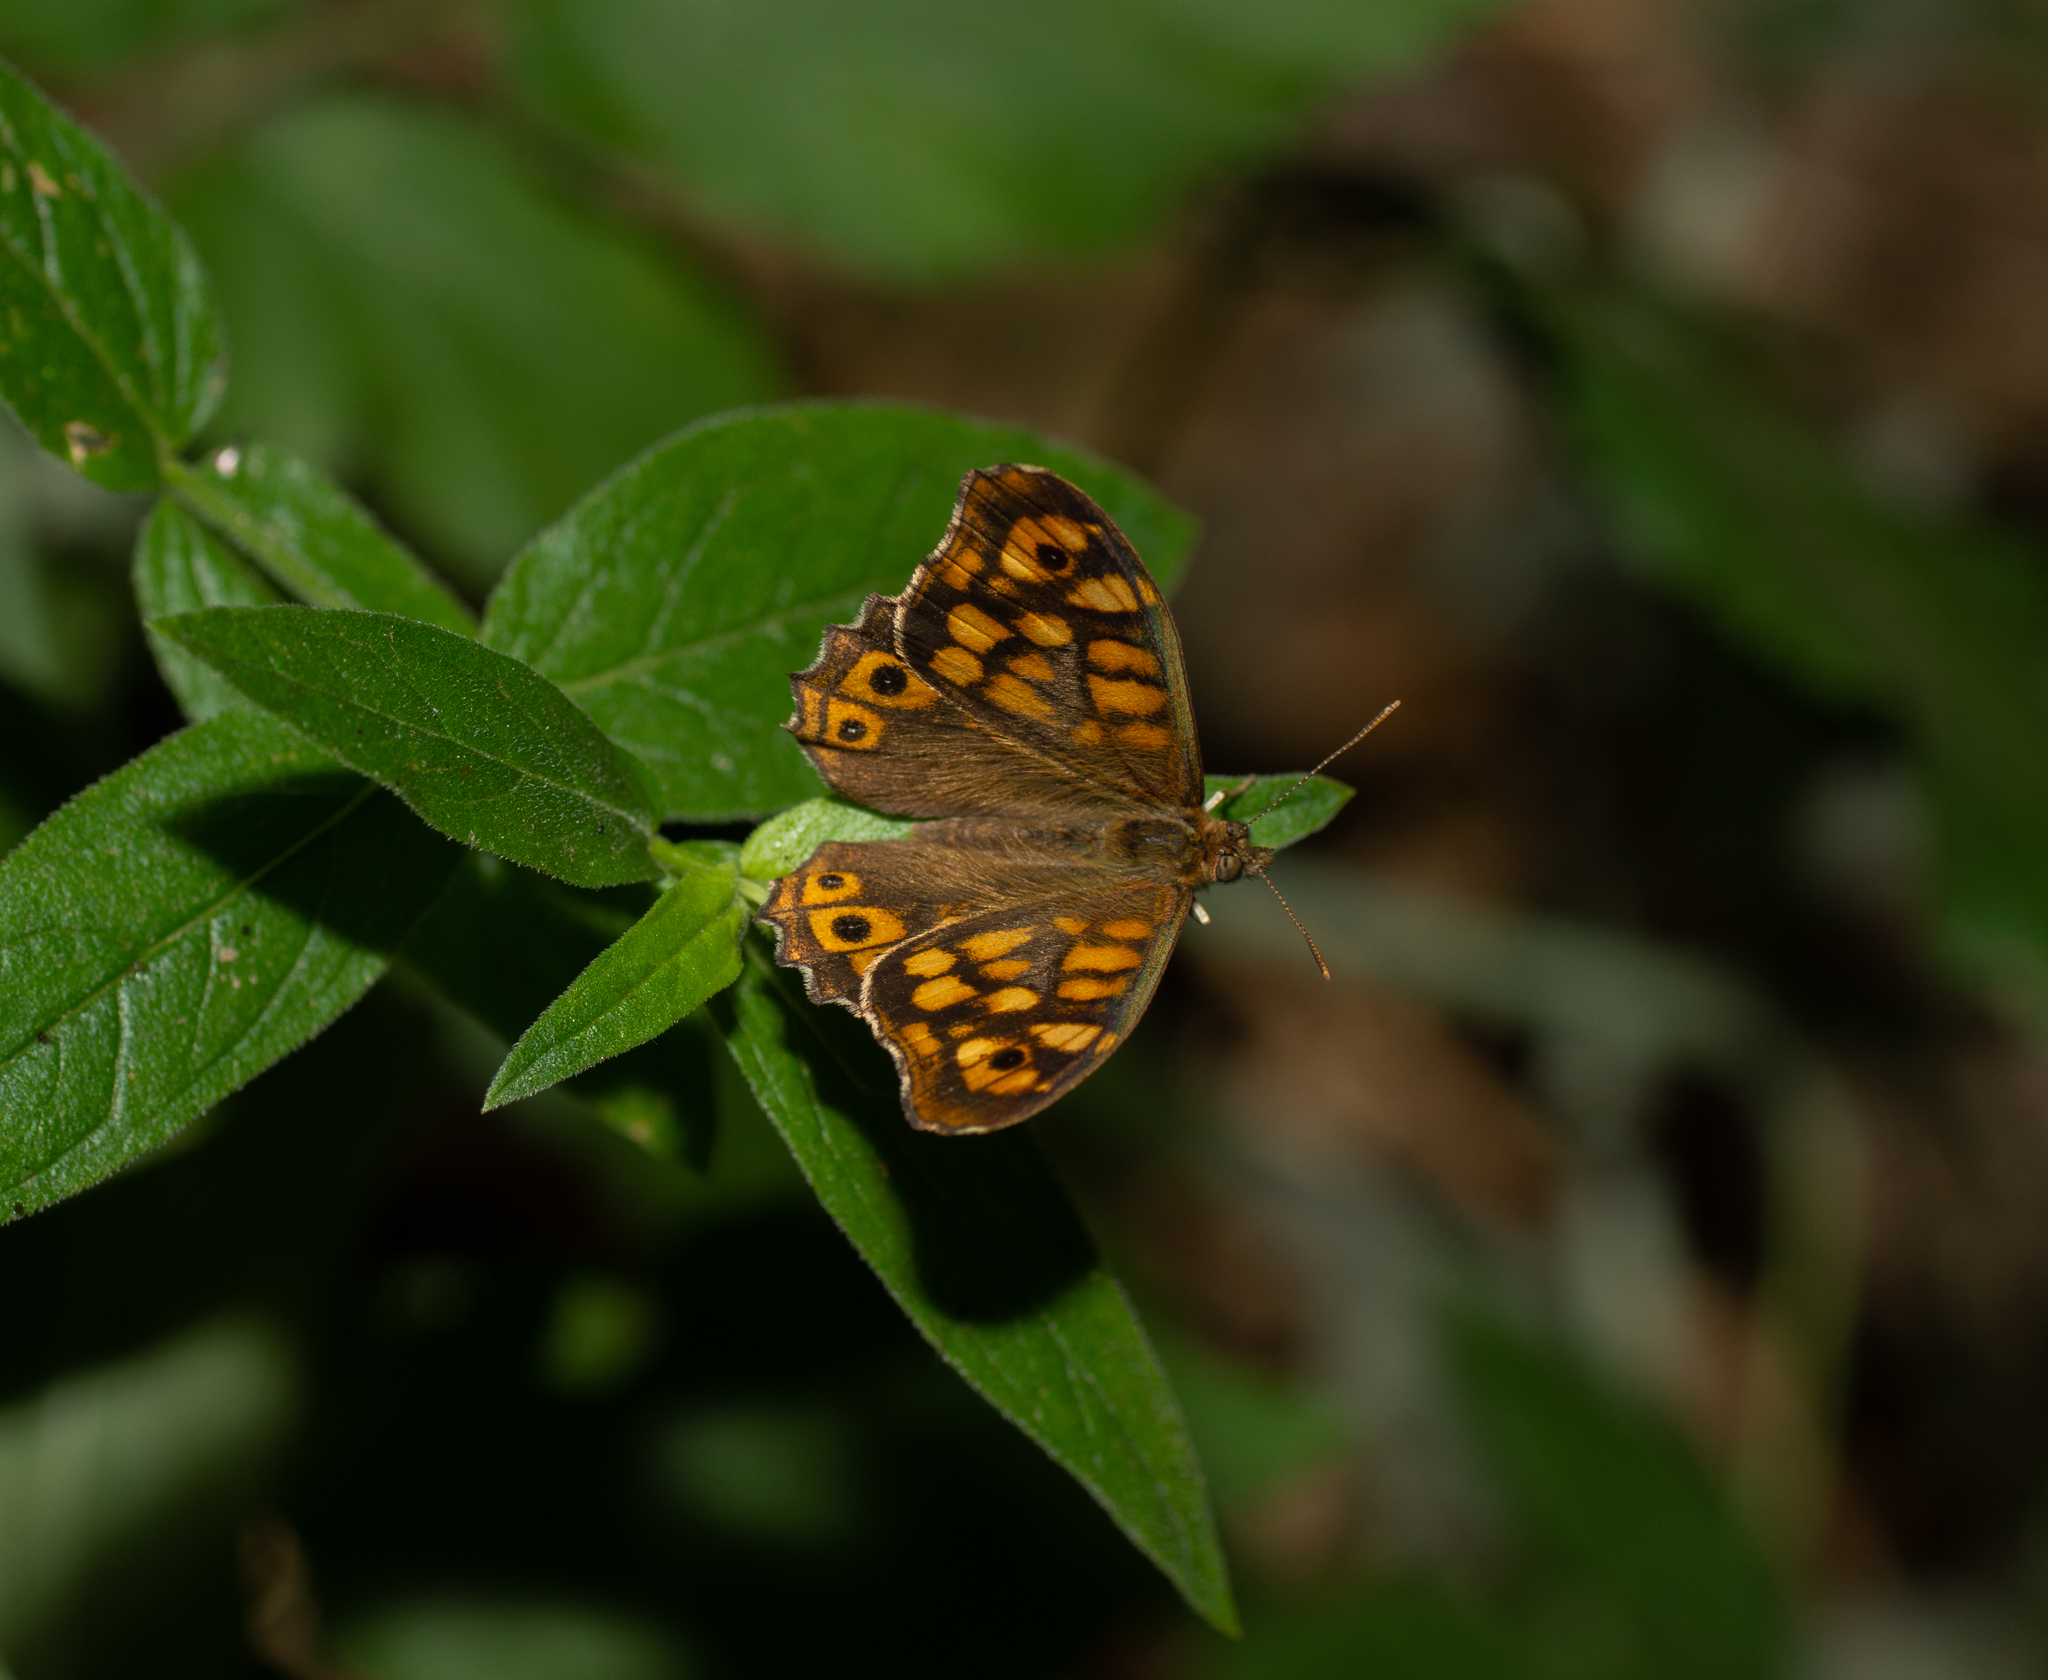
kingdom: Animalia
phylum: Arthropoda
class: Insecta
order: Lepidoptera
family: Nymphalidae
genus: Pararge
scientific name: Pararge aegeria
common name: Speckled wood
